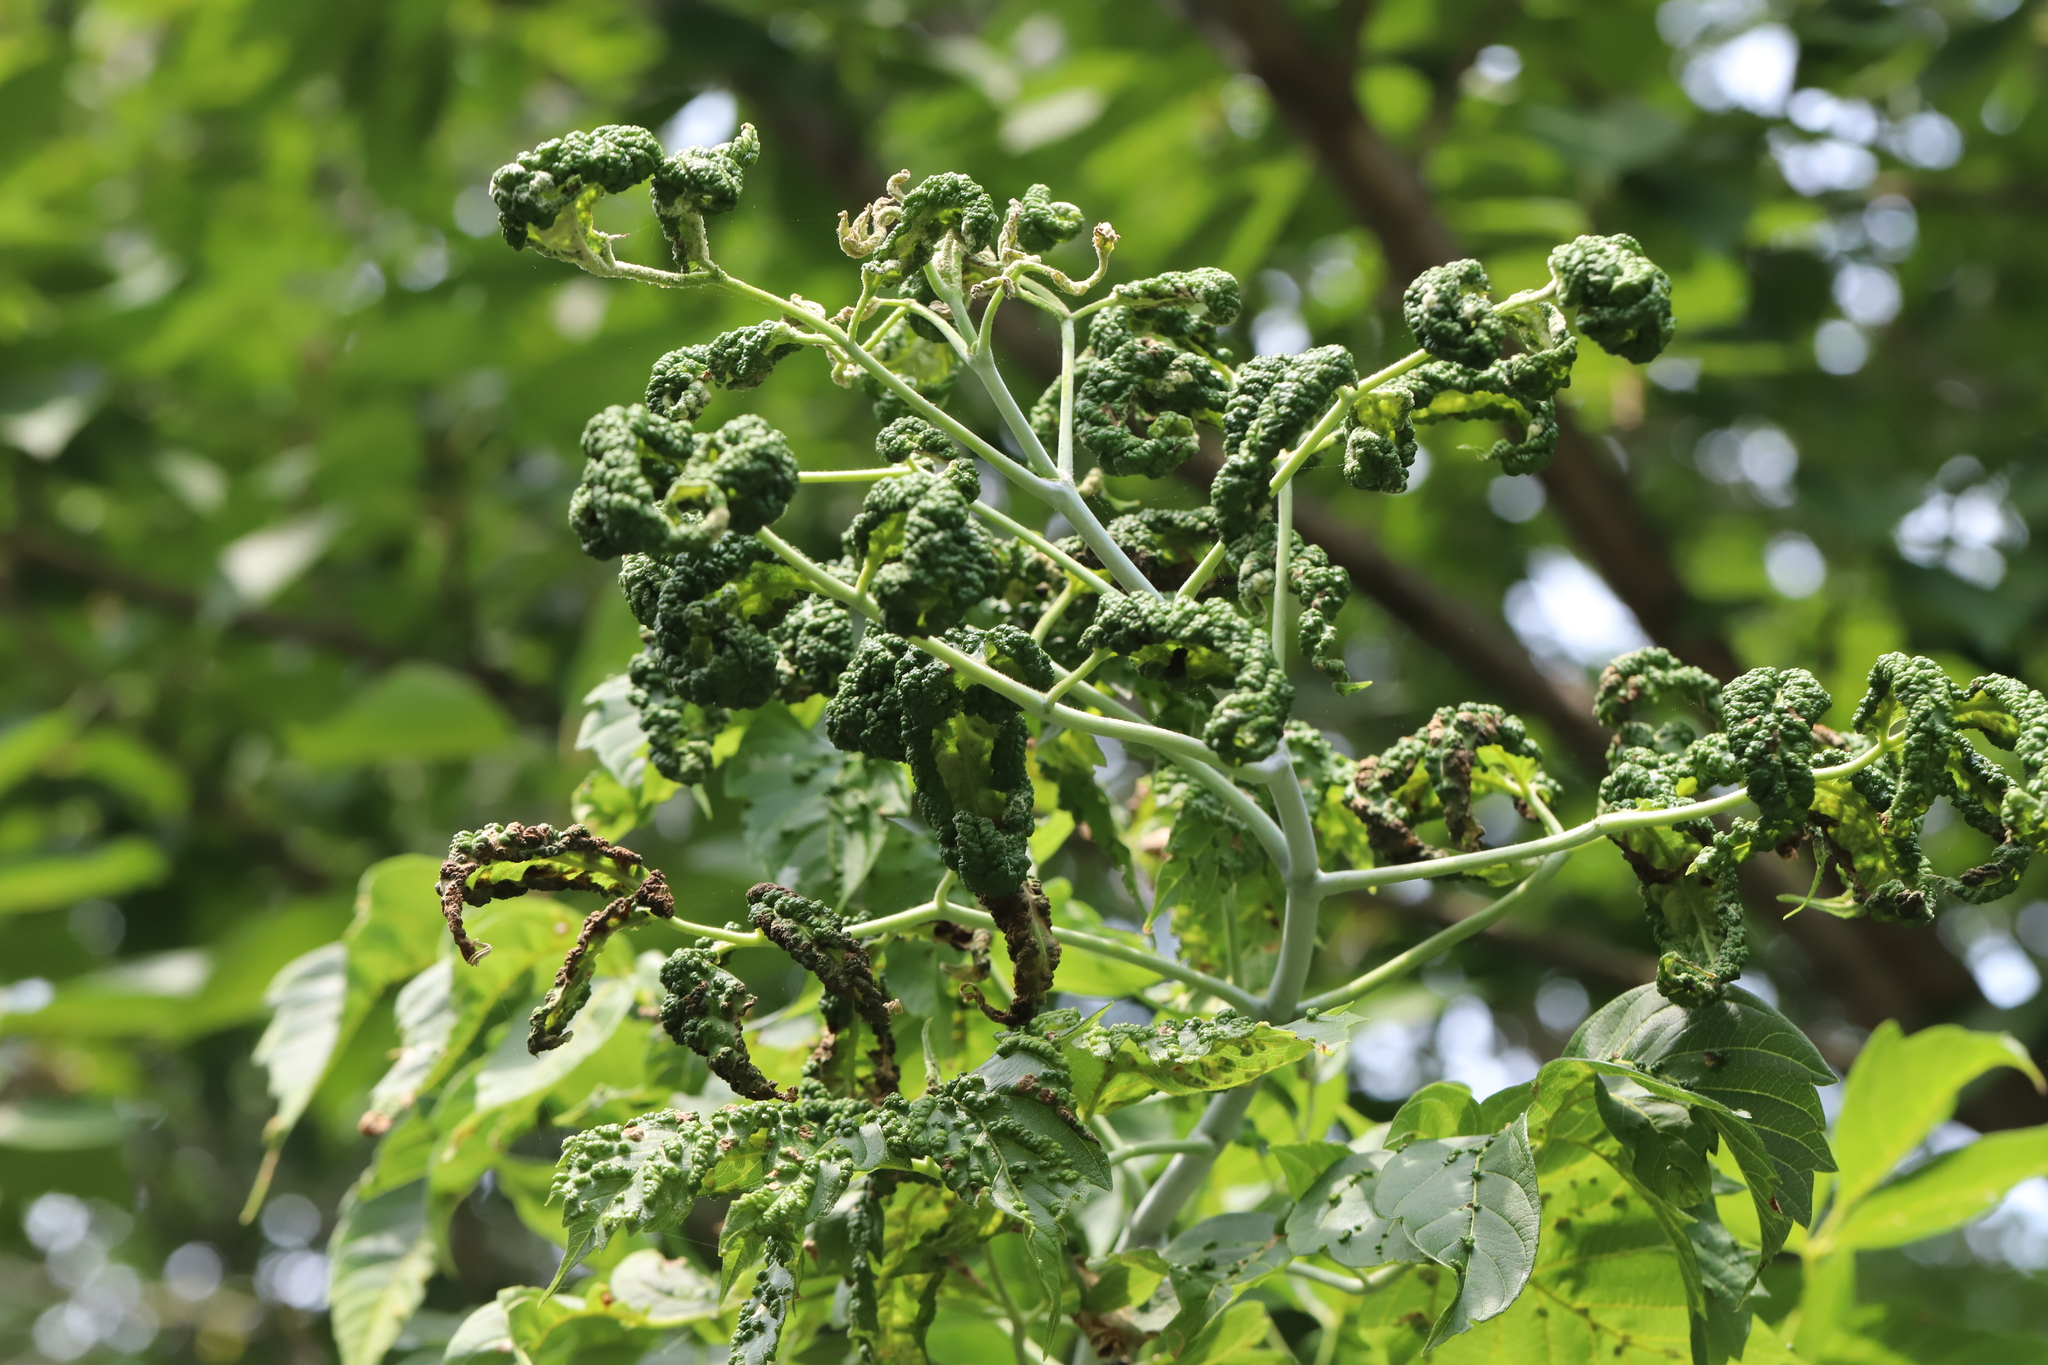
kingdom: Animalia
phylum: Arthropoda
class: Arachnida
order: Trombidiformes
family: Eriophyidae
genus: Aceria
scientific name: Aceria
